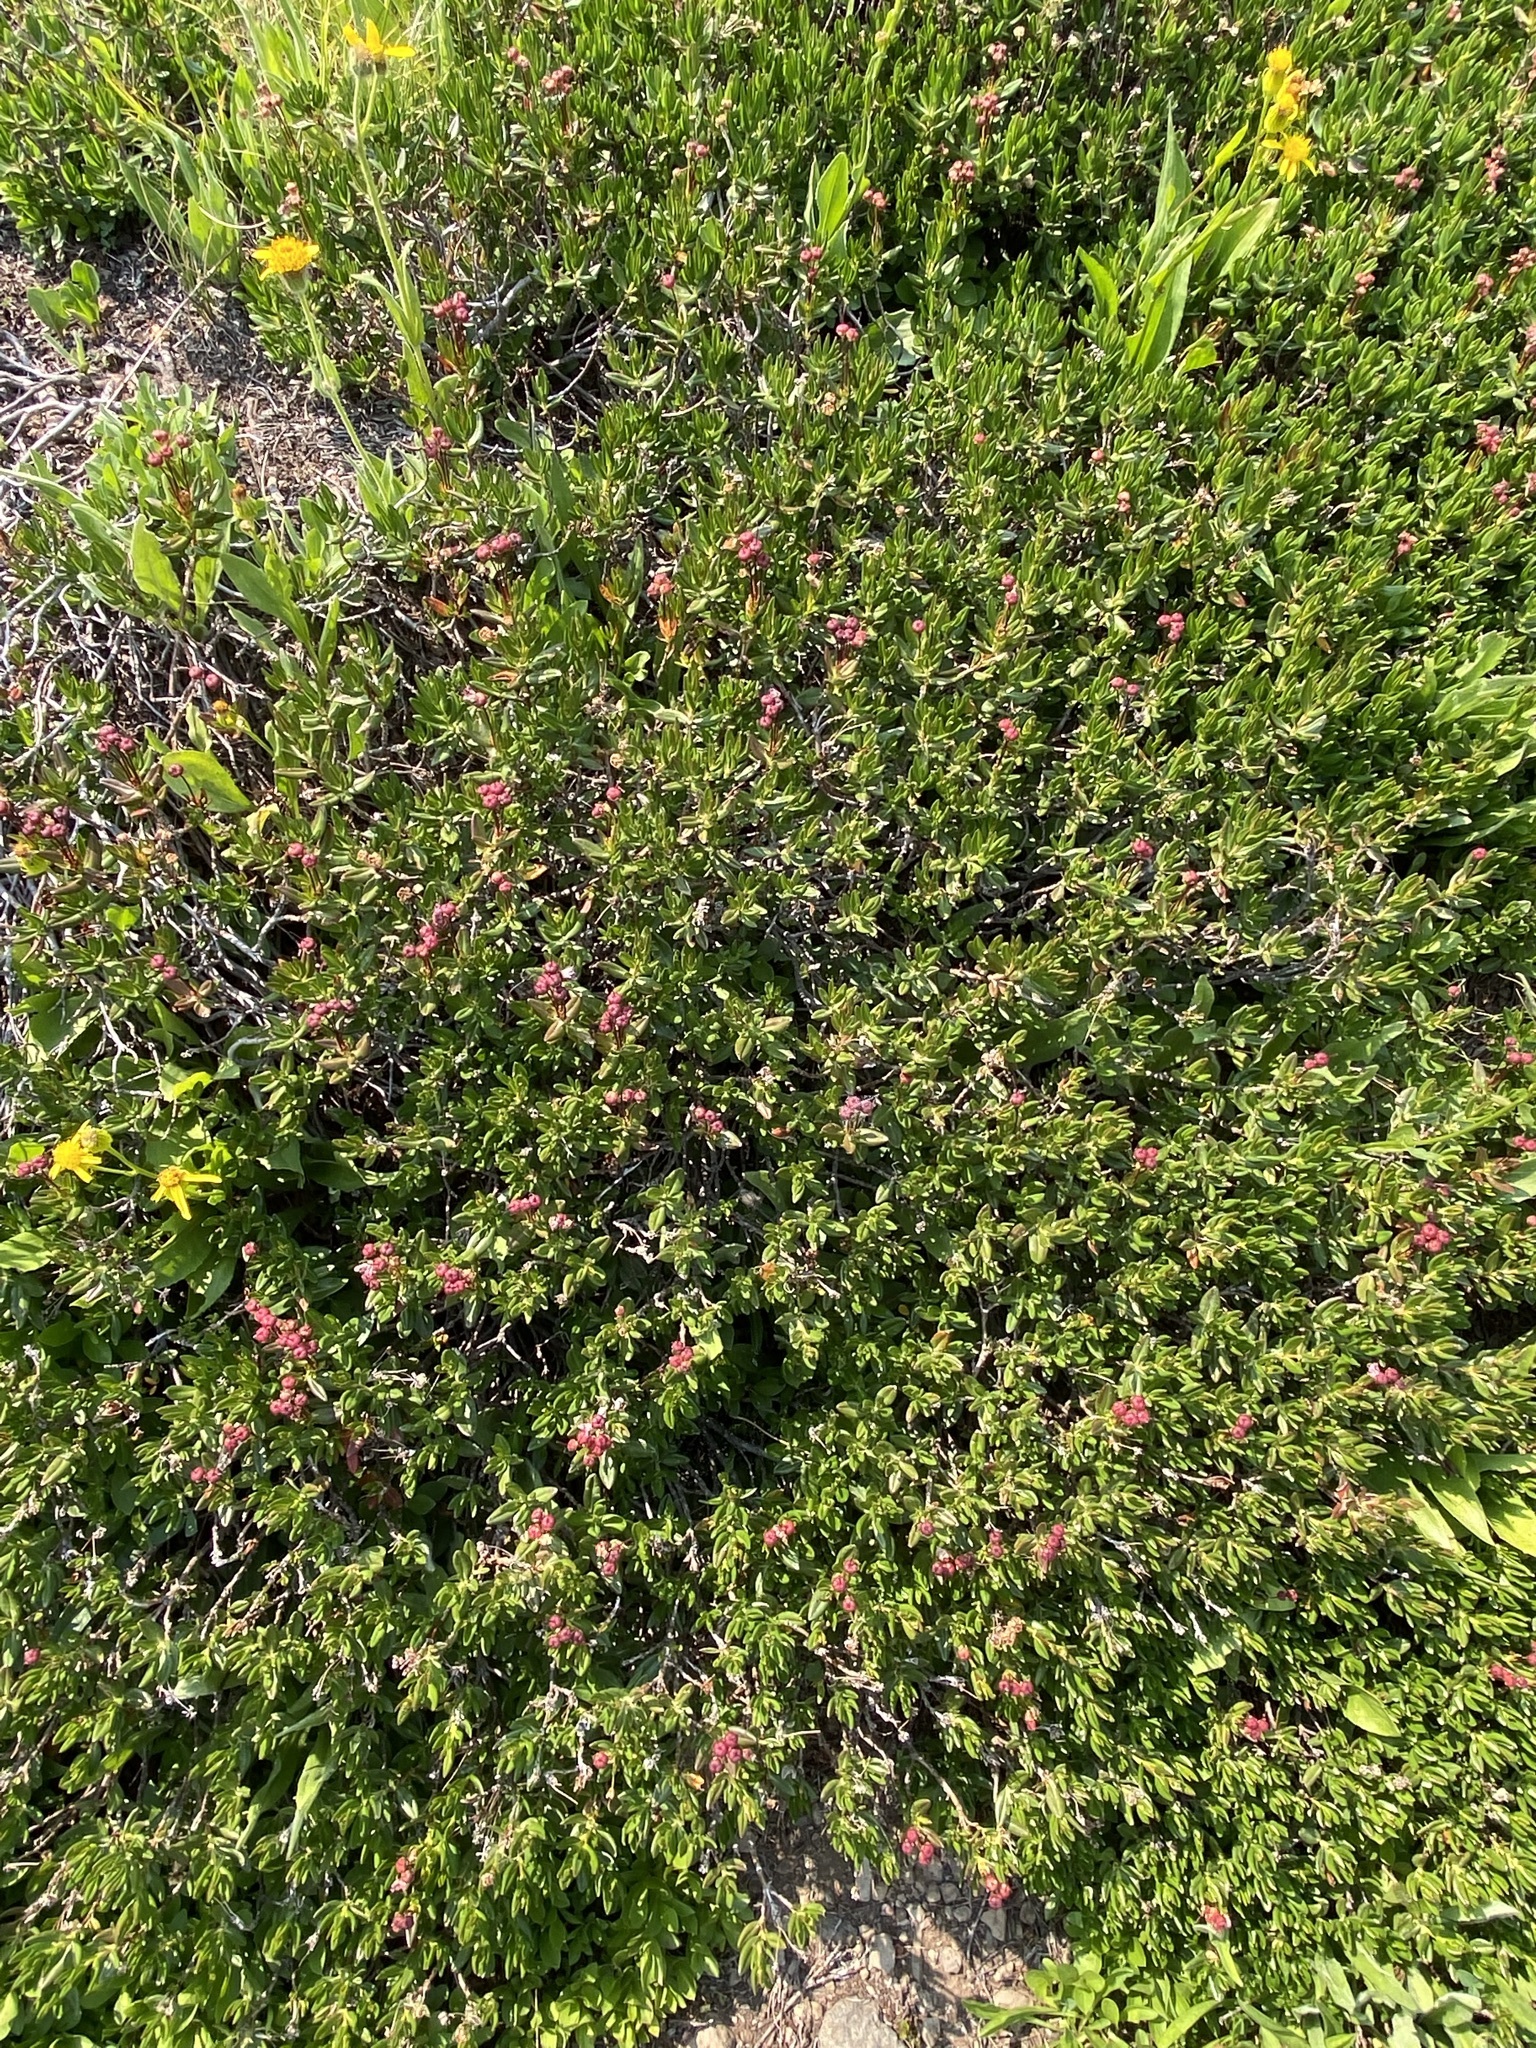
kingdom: Plantae
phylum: Tracheophyta
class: Magnoliopsida
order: Ericales
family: Ericaceae
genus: Kalmia
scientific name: Kalmia microphylla
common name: Alpine bog laurel
